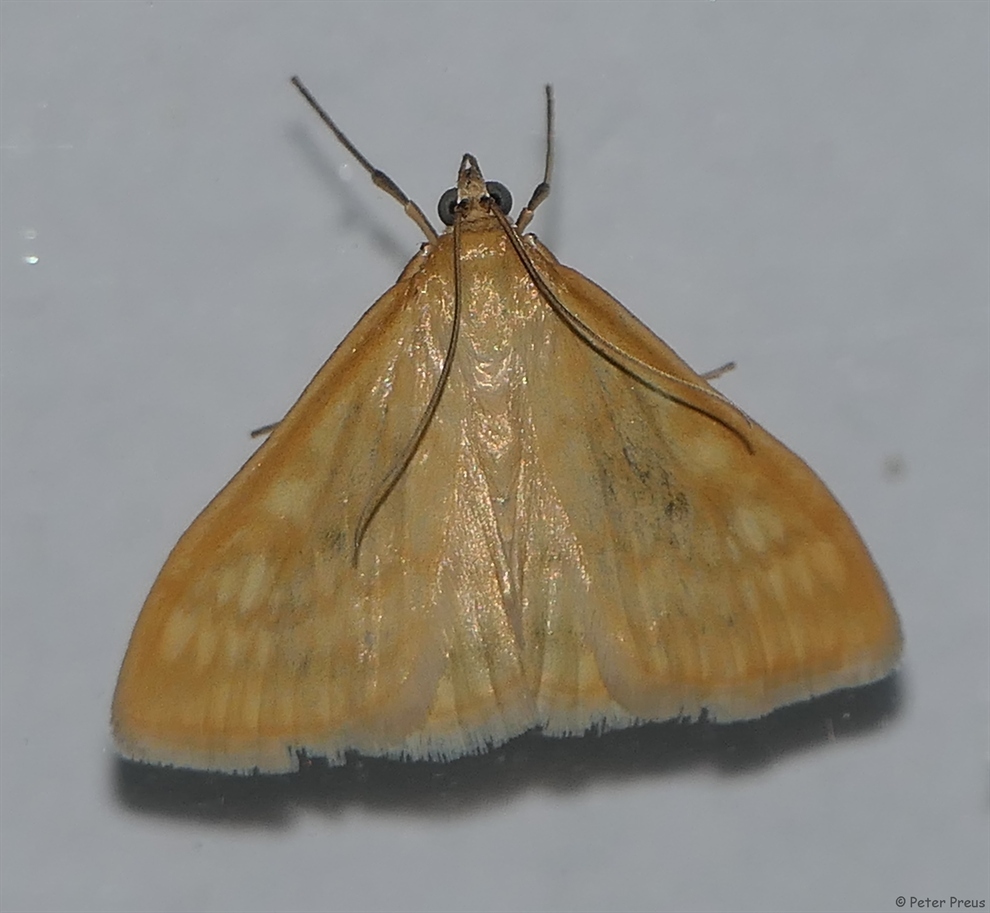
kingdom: Animalia
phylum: Arthropoda
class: Insecta
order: Lepidoptera
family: Crambidae
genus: Sitochroa
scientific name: Sitochroa verticalis
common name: Lesser pearl
